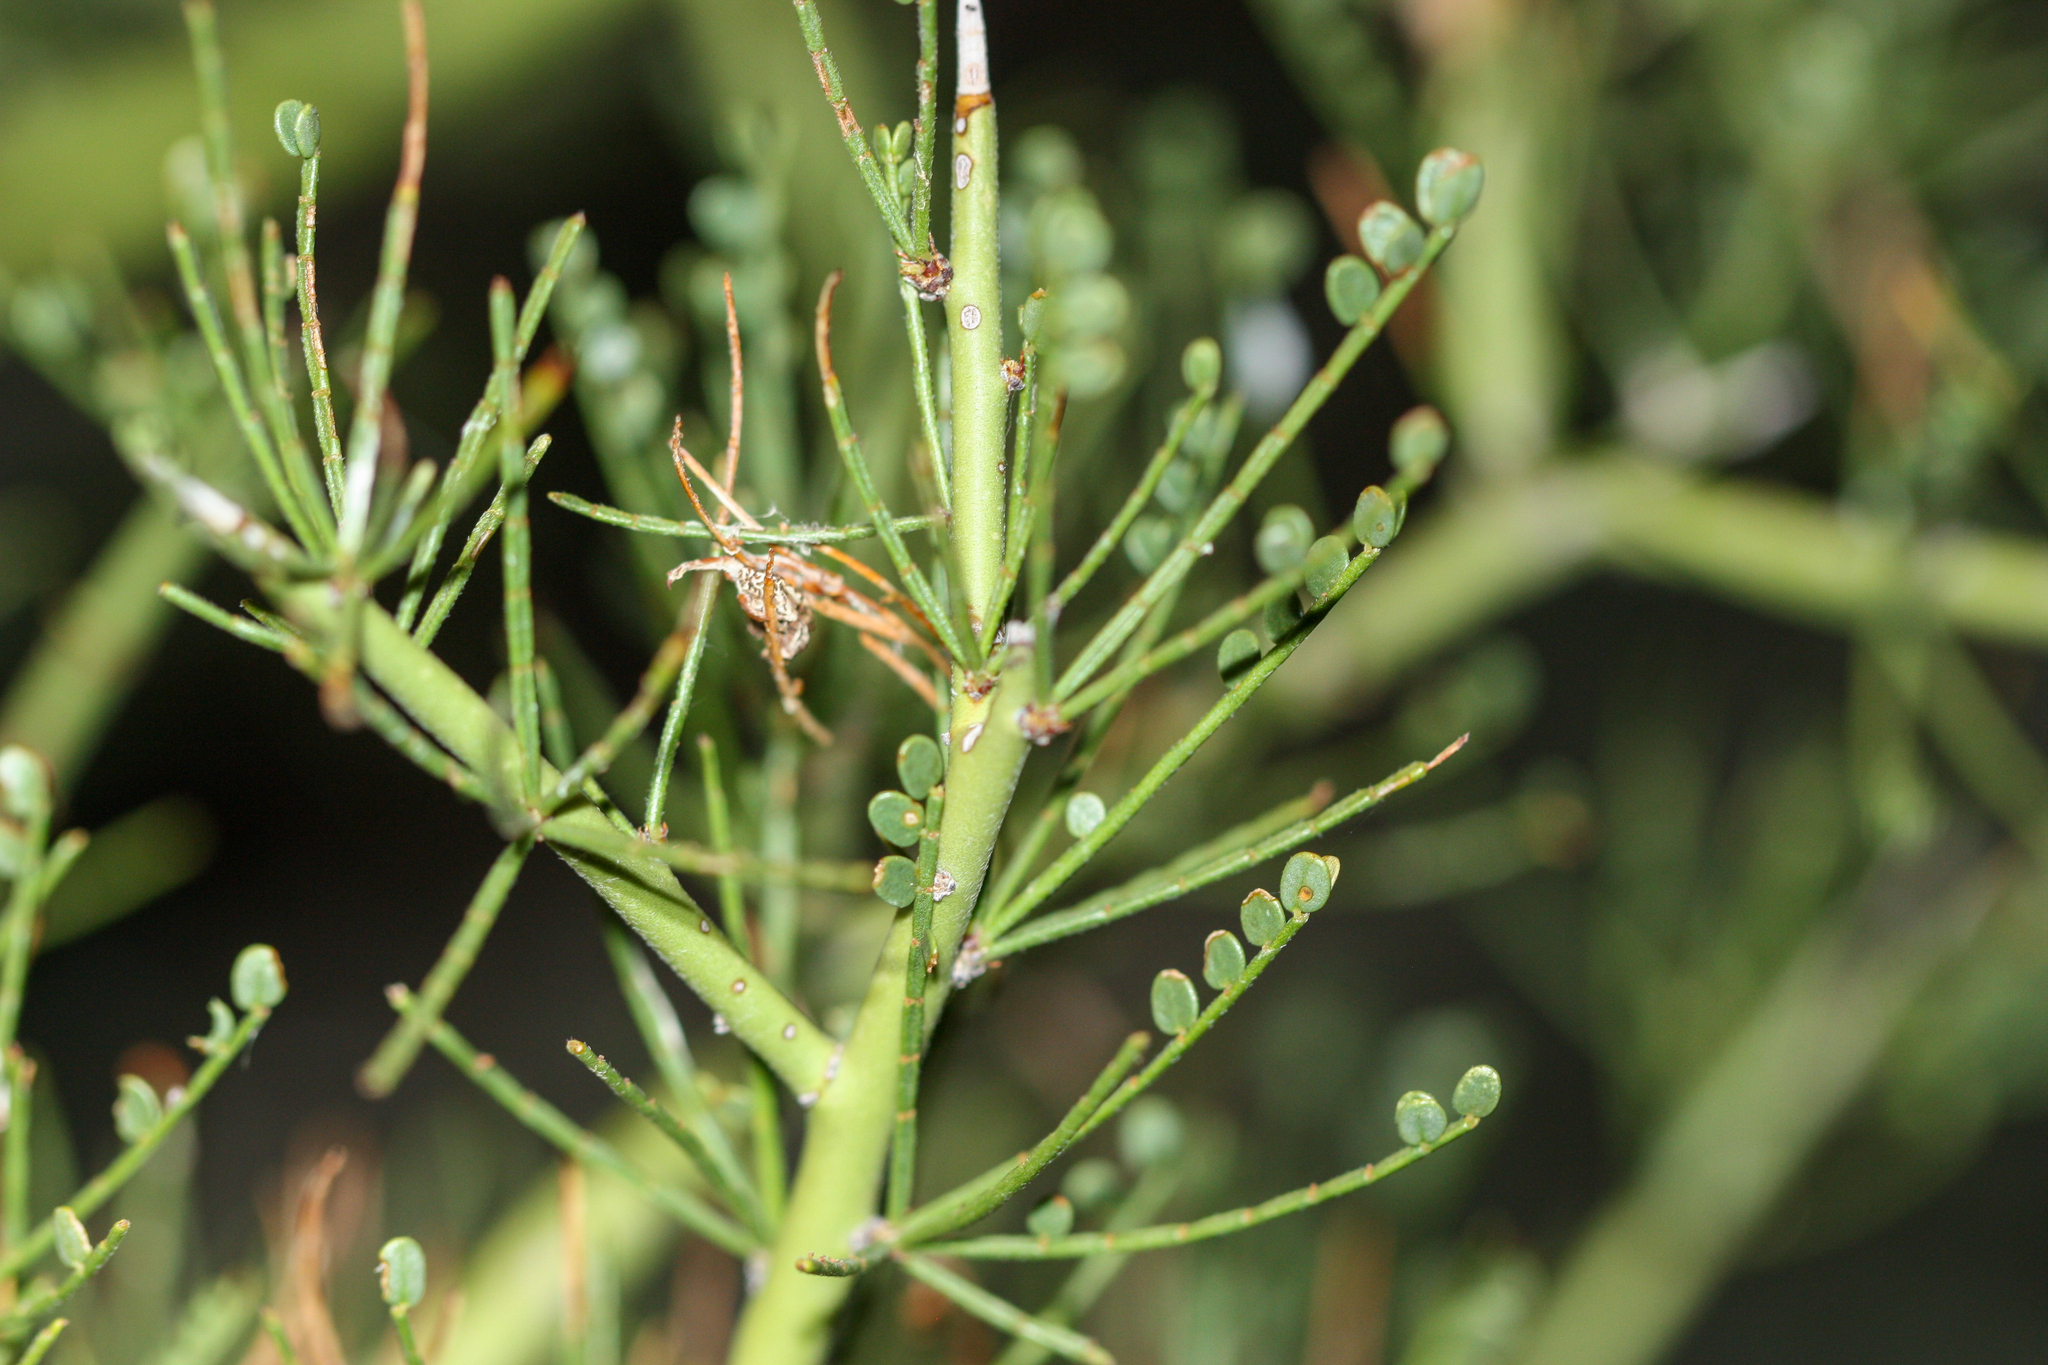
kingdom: Plantae
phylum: Tracheophyta
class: Magnoliopsida
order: Fabales
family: Fabaceae
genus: Parkinsonia
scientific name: Parkinsonia microphylla
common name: Yellow paloverde
